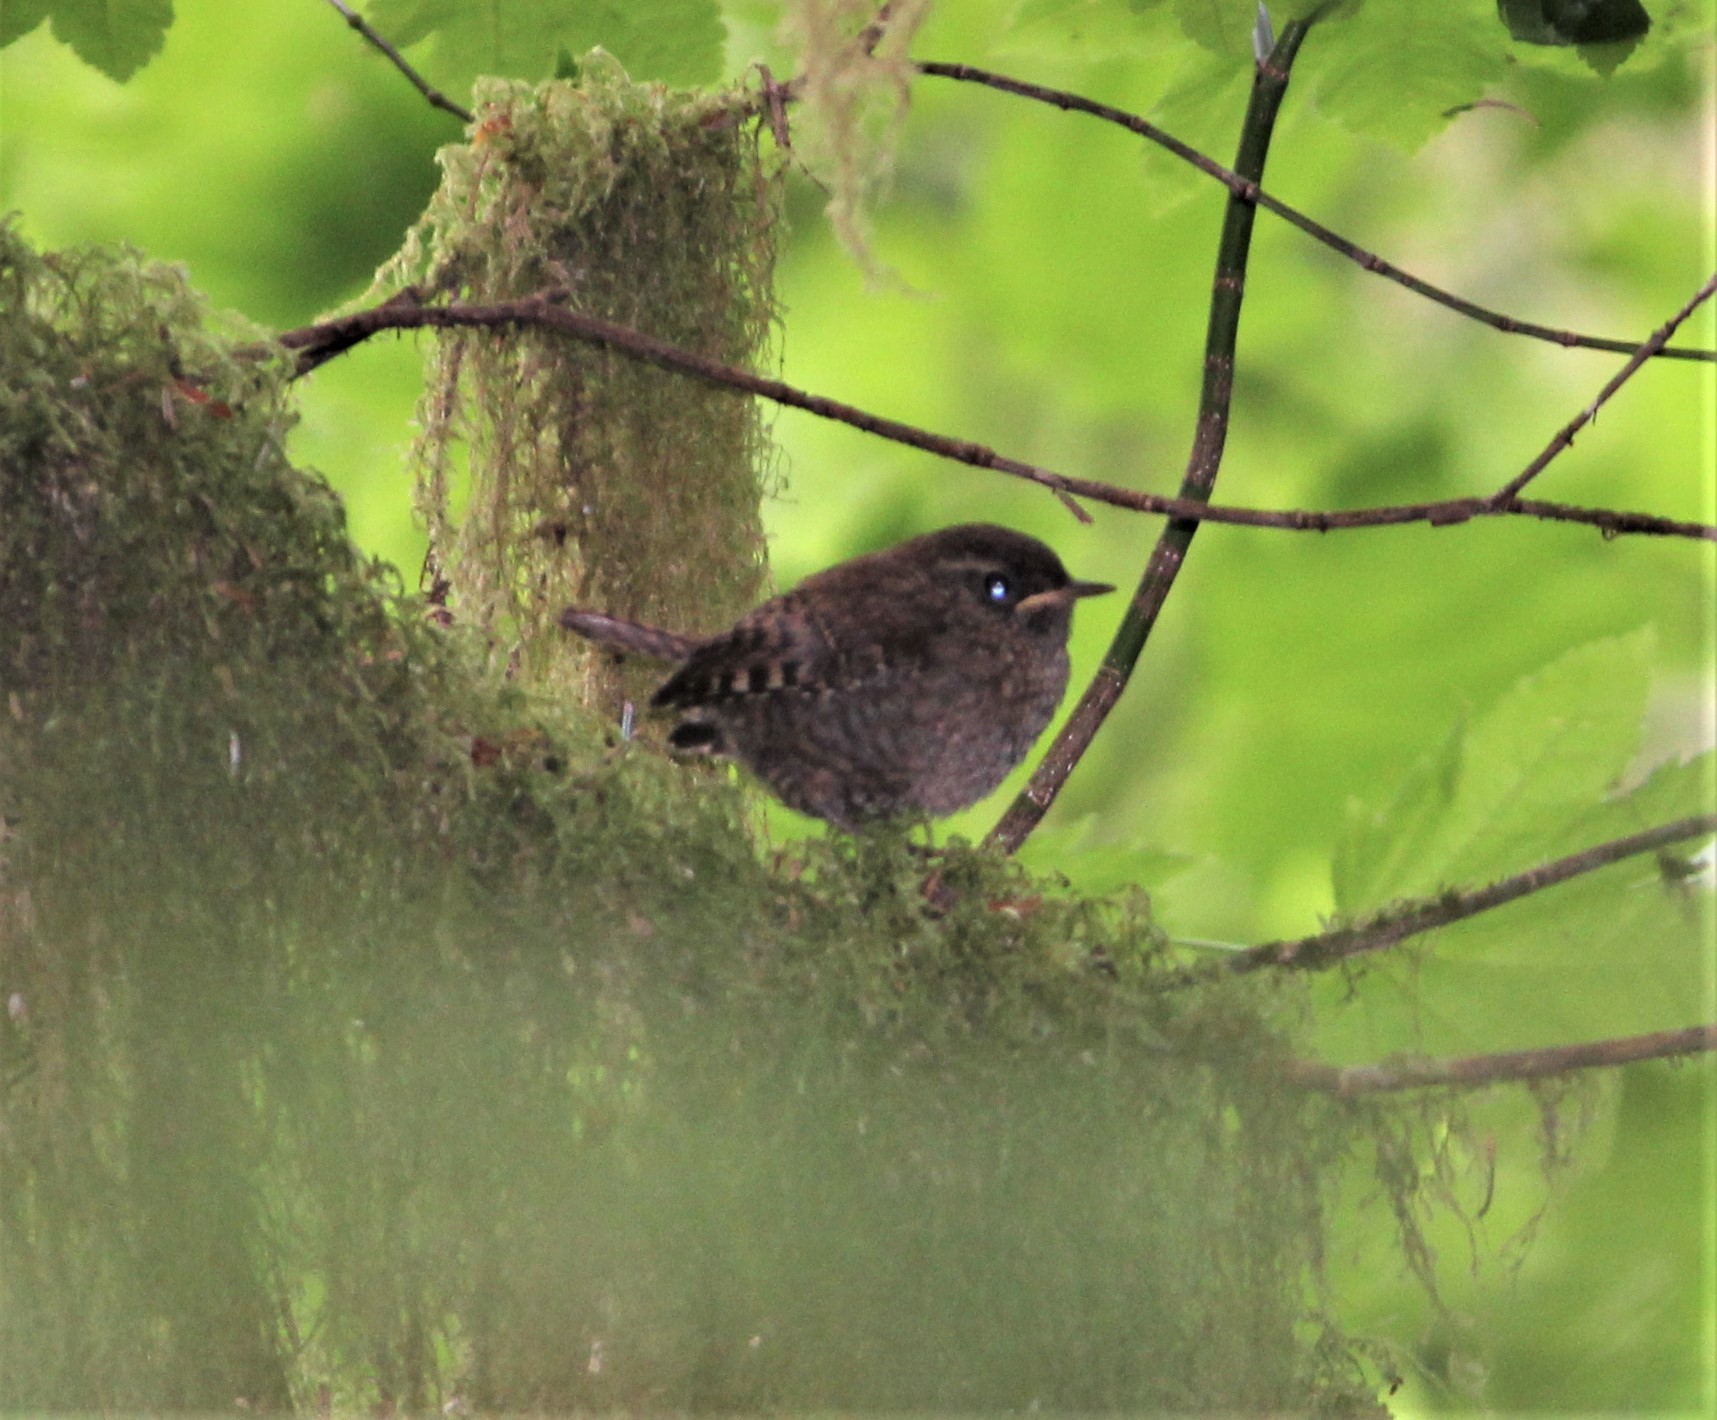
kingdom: Animalia
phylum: Chordata
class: Aves
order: Passeriformes
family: Troglodytidae
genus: Troglodytes
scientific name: Troglodytes pacificus
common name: Pacific wren
